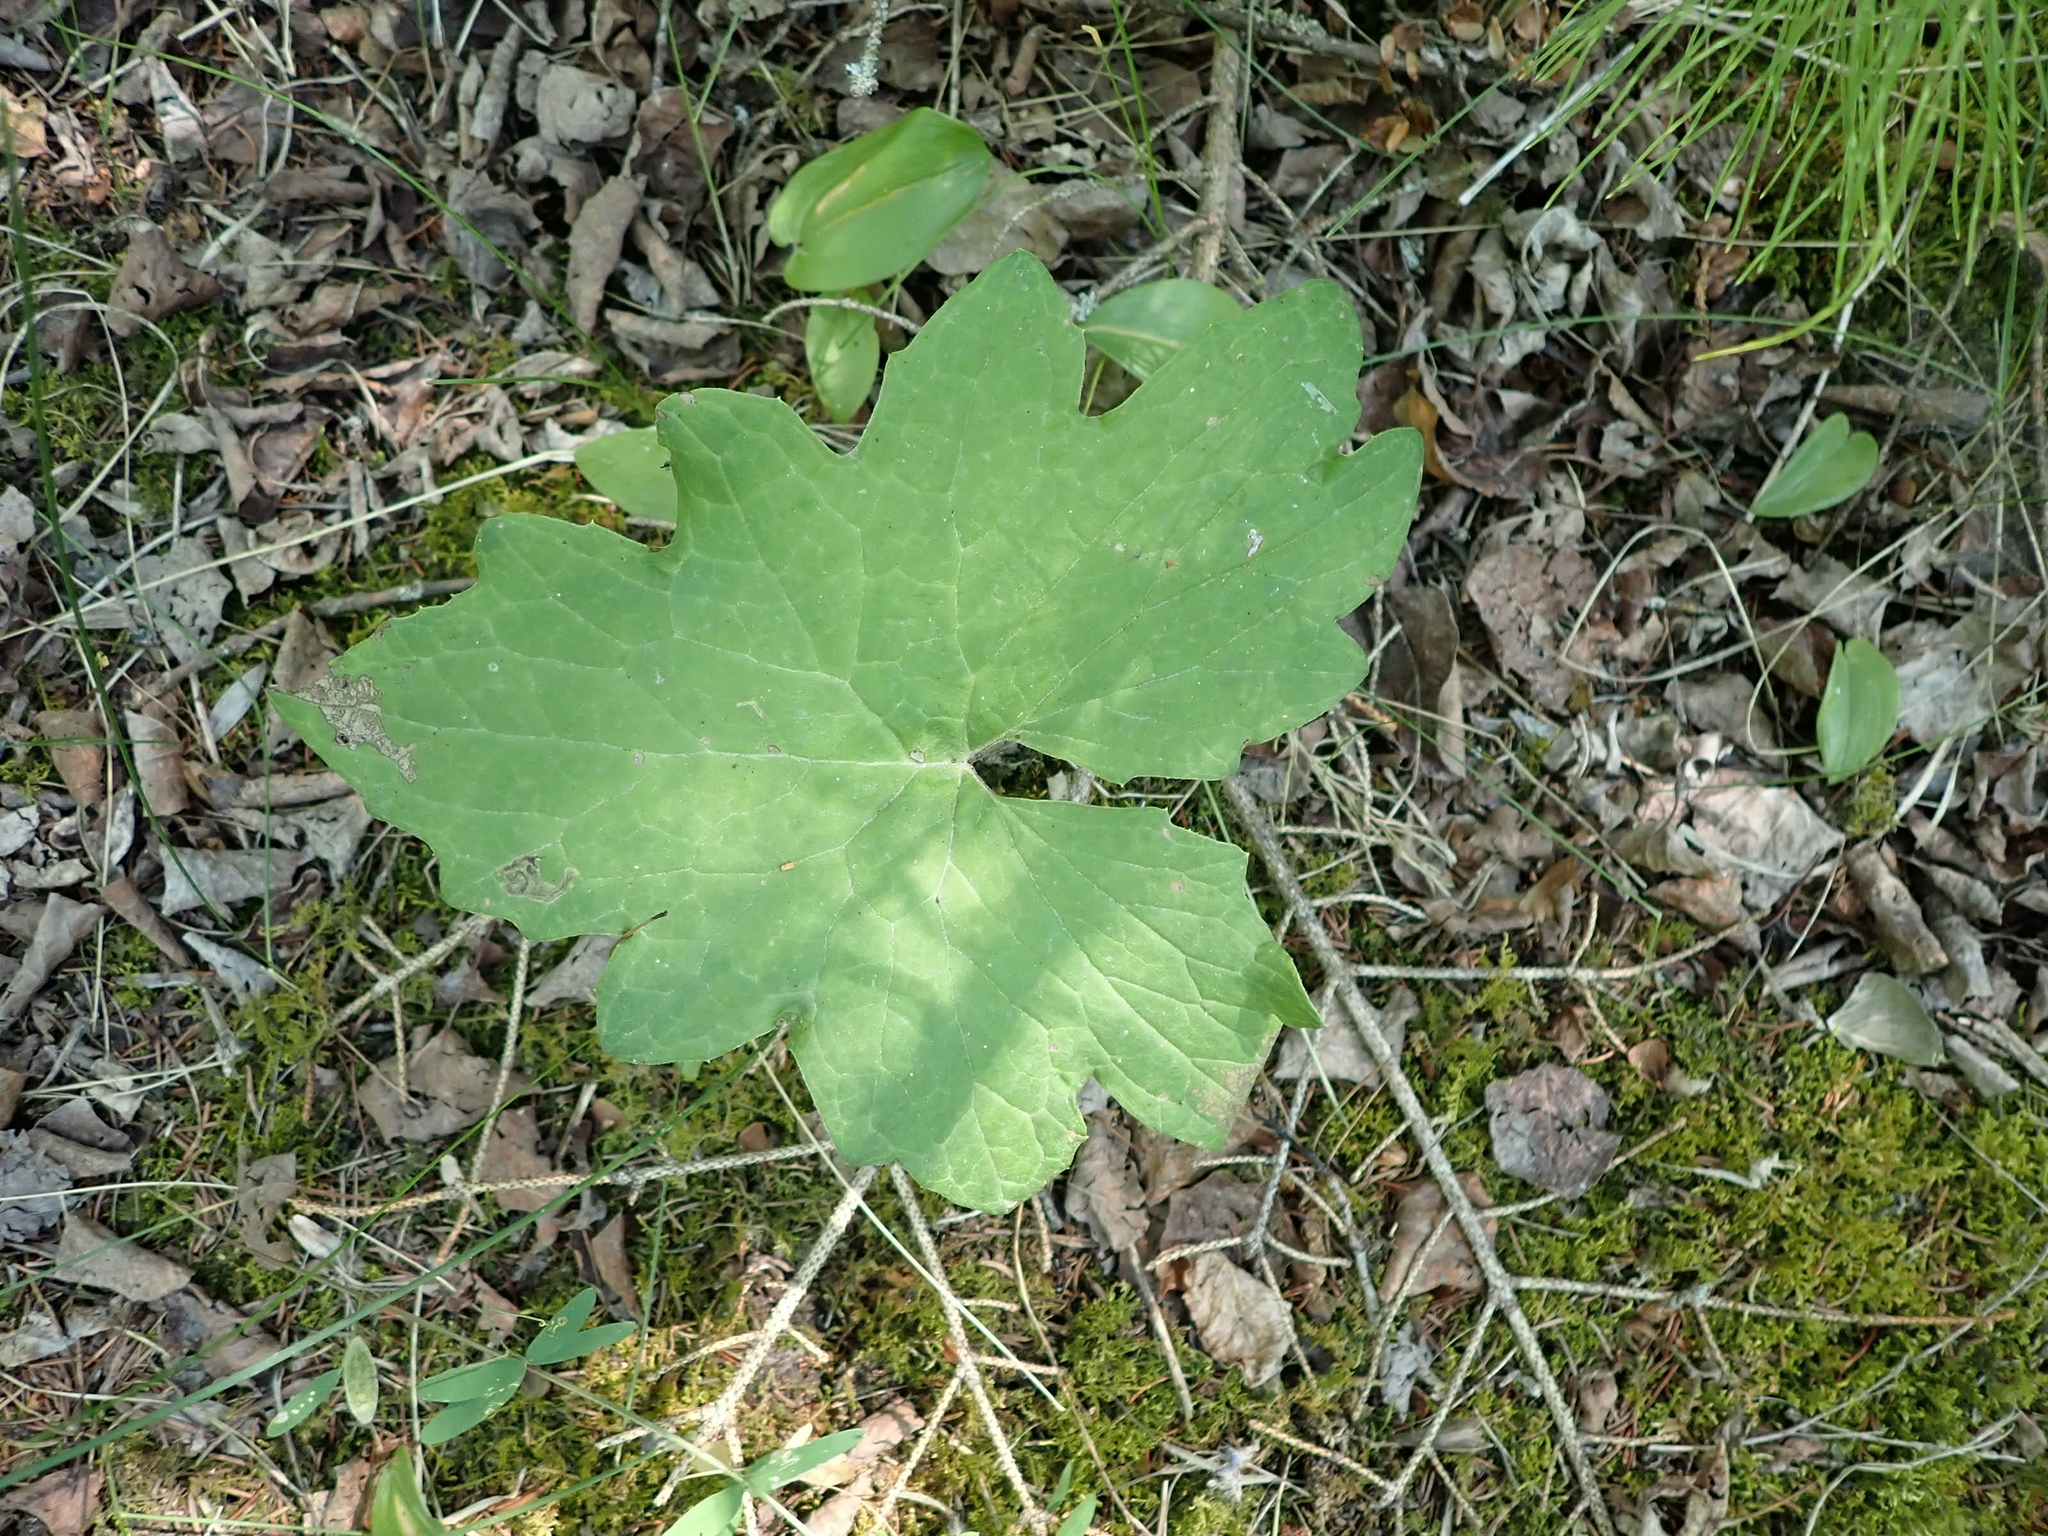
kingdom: Plantae
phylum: Tracheophyta
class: Magnoliopsida
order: Asterales
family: Asteraceae
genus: Petasites
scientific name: Petasites frigidus
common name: Arctic butterbur
